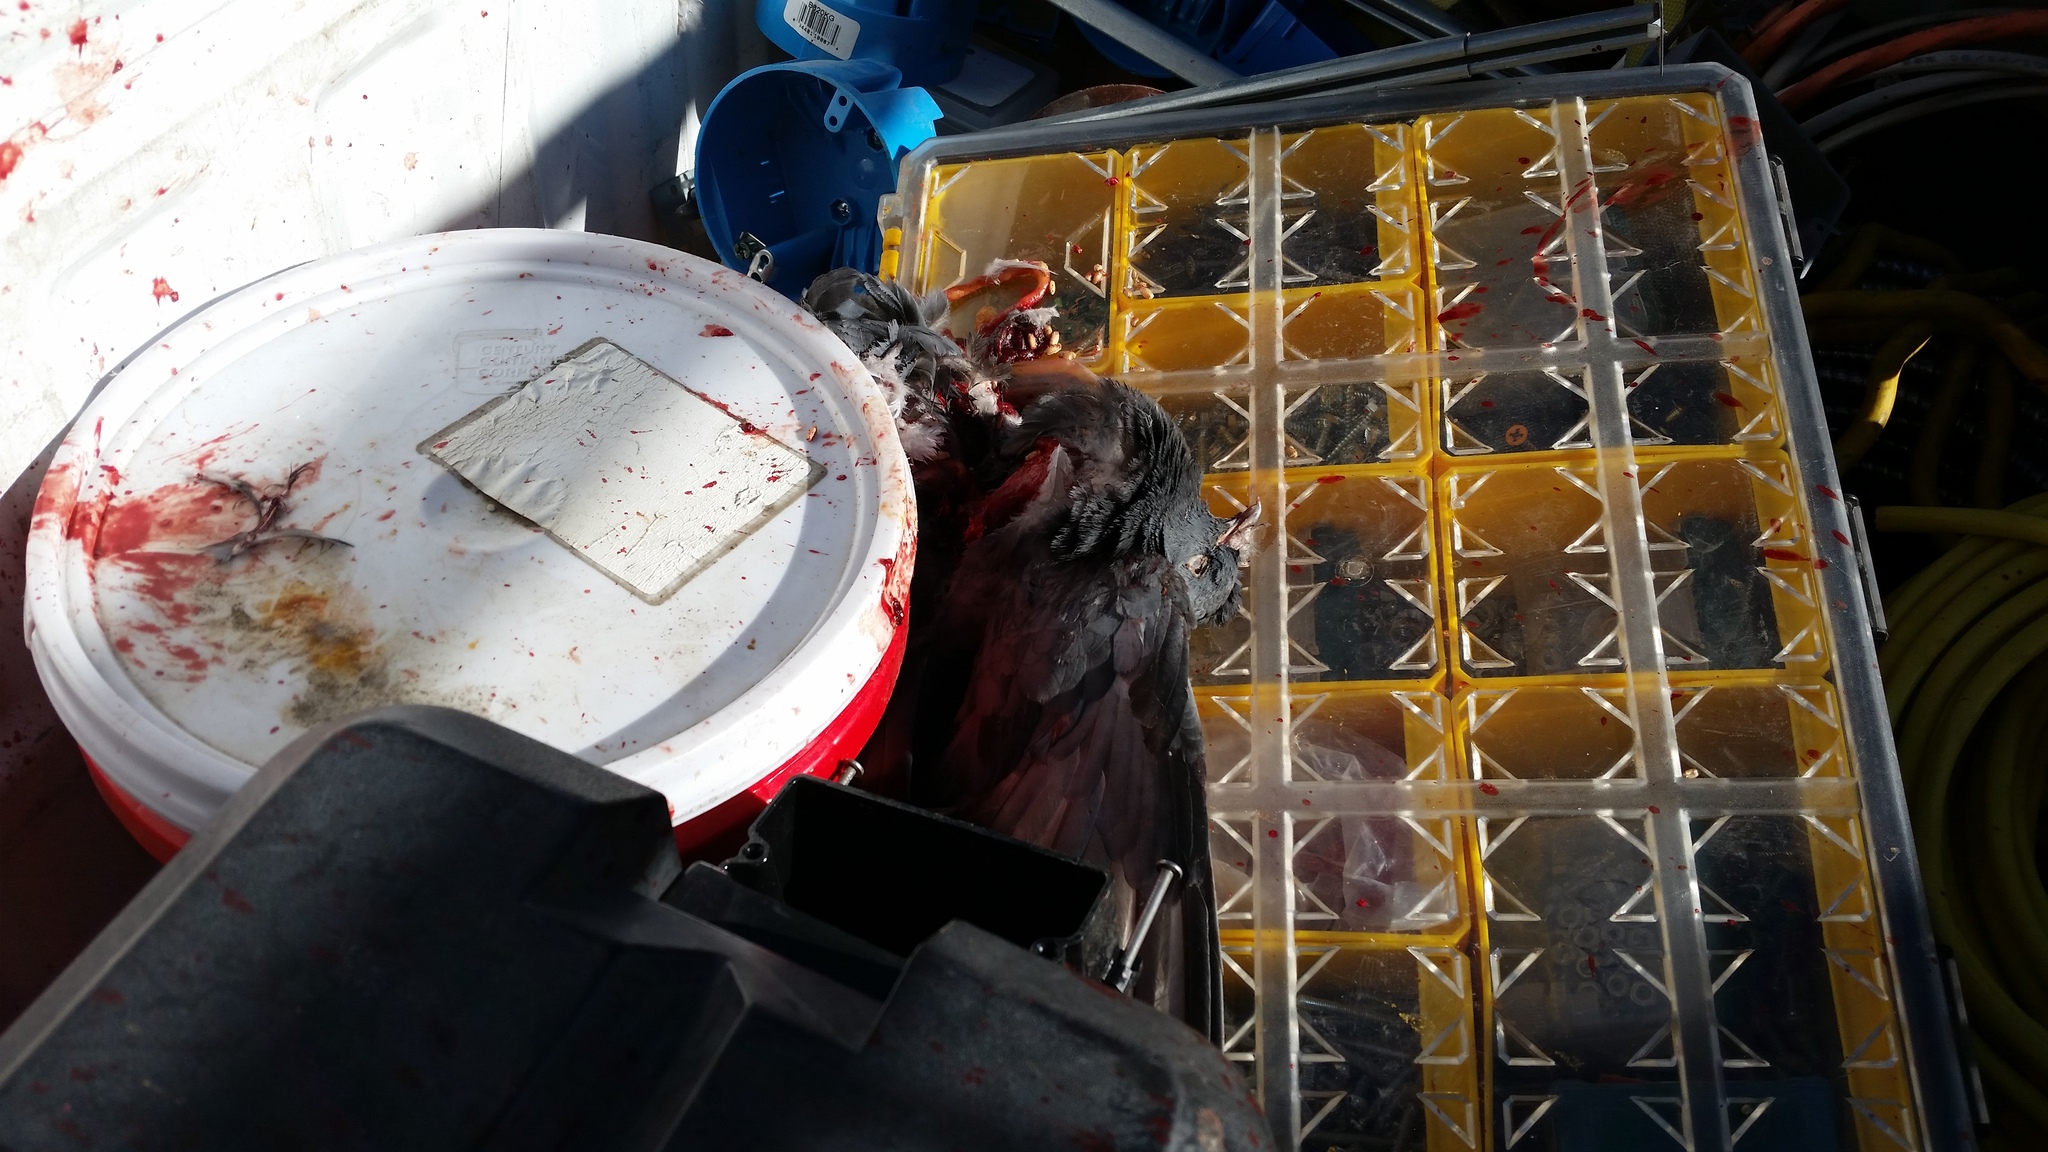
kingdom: Animalia
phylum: Chordata
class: Aves
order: Columbiformes
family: Columbidae
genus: Columba
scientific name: Columba livia
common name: Rock pigeon
